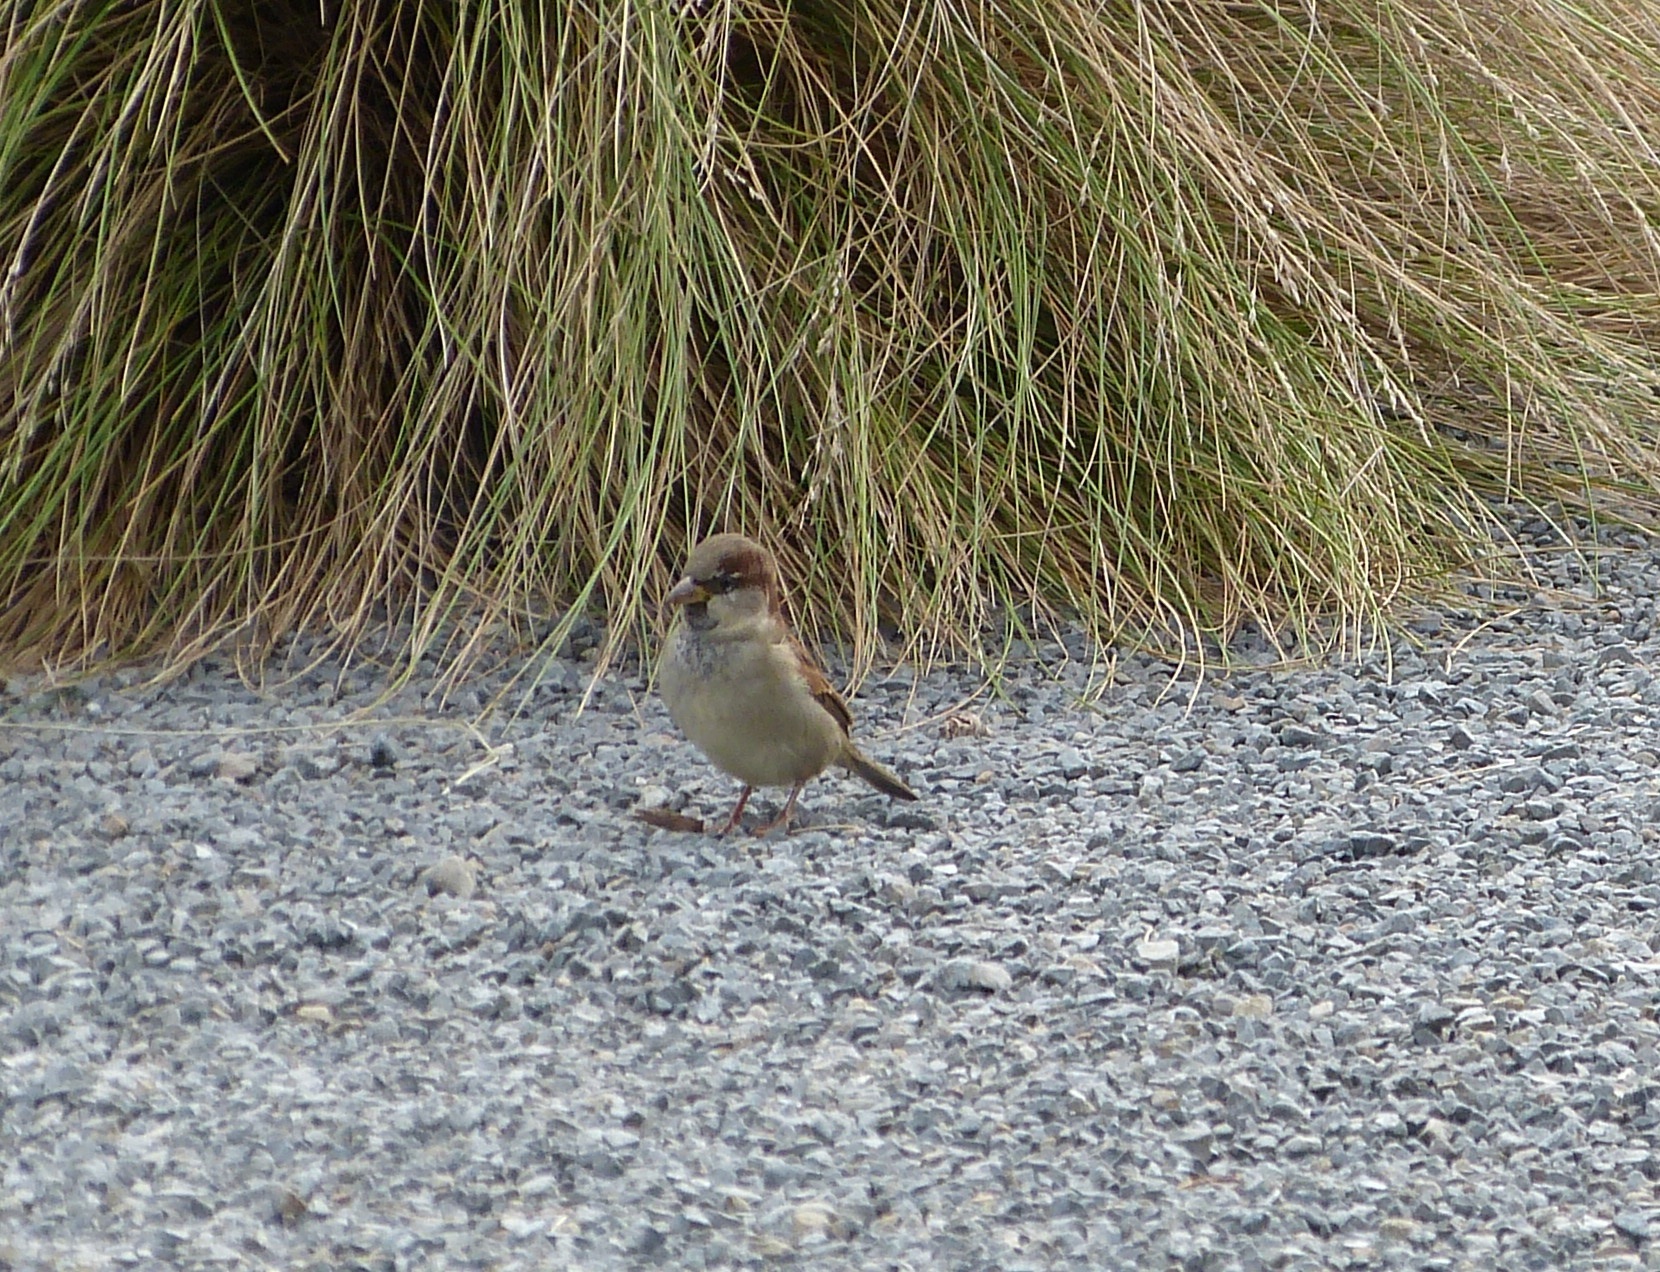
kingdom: Animalia
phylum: Chordata
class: Aves
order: Passeriformes
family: Passeridae
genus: Passer
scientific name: Passer domesticus
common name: House sparrow
